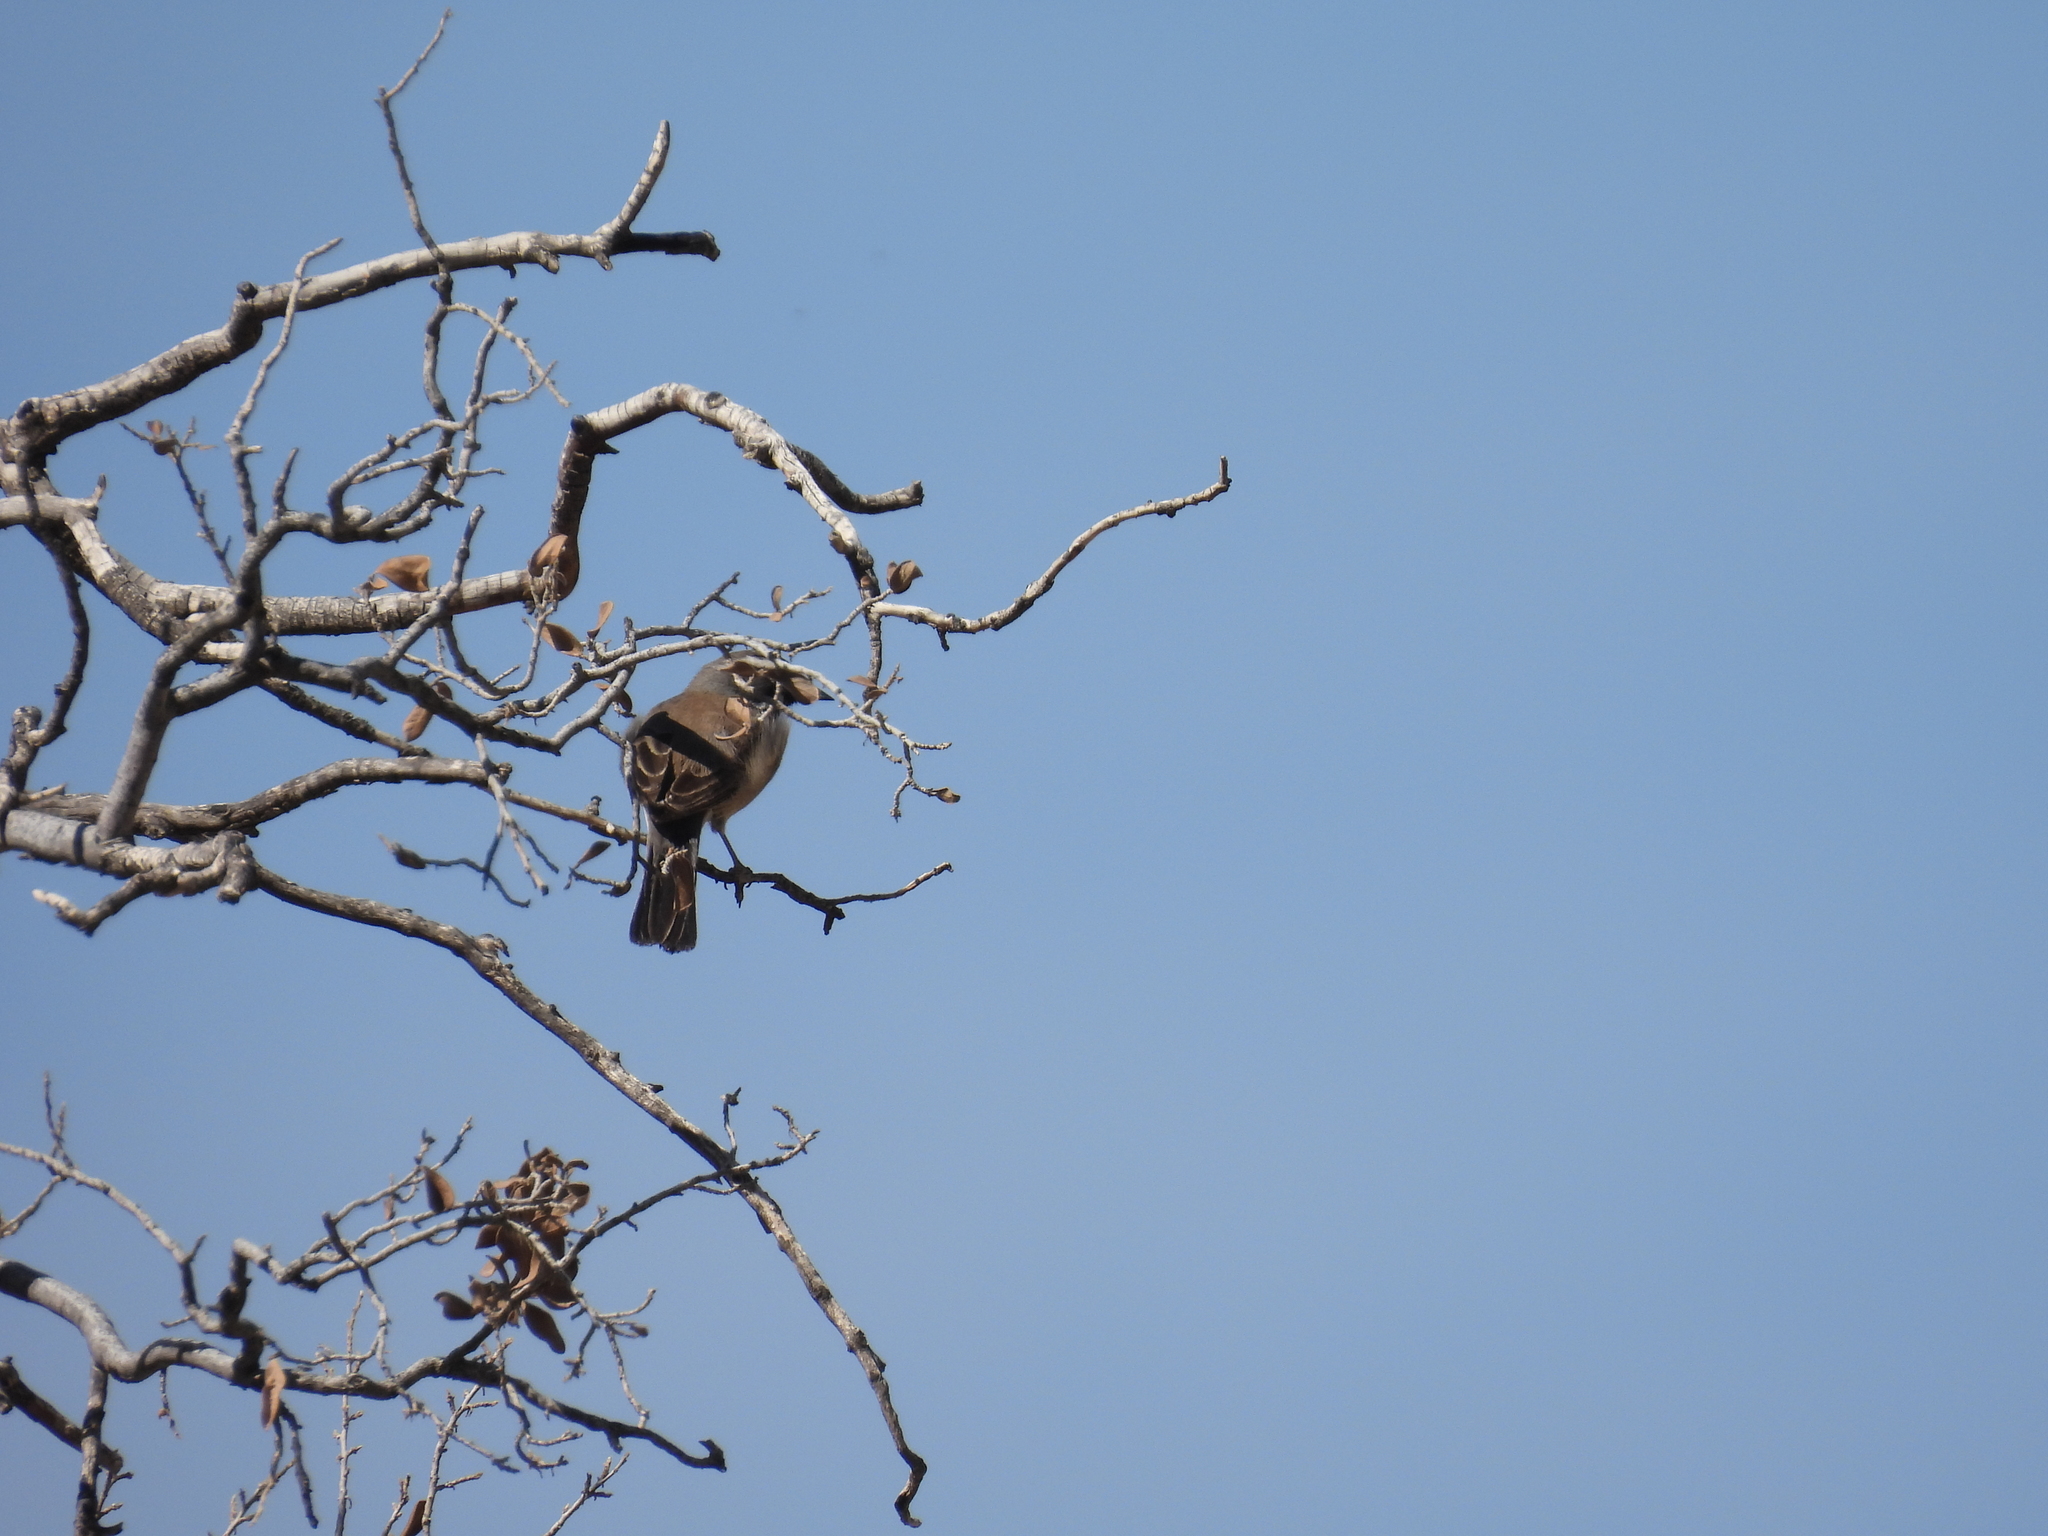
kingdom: Animalia
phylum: Chordata
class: Aves
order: Passeriformes
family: Passerellidae
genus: Amphispiza
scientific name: Amphispiza bilineata
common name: Black-throated sparrow
